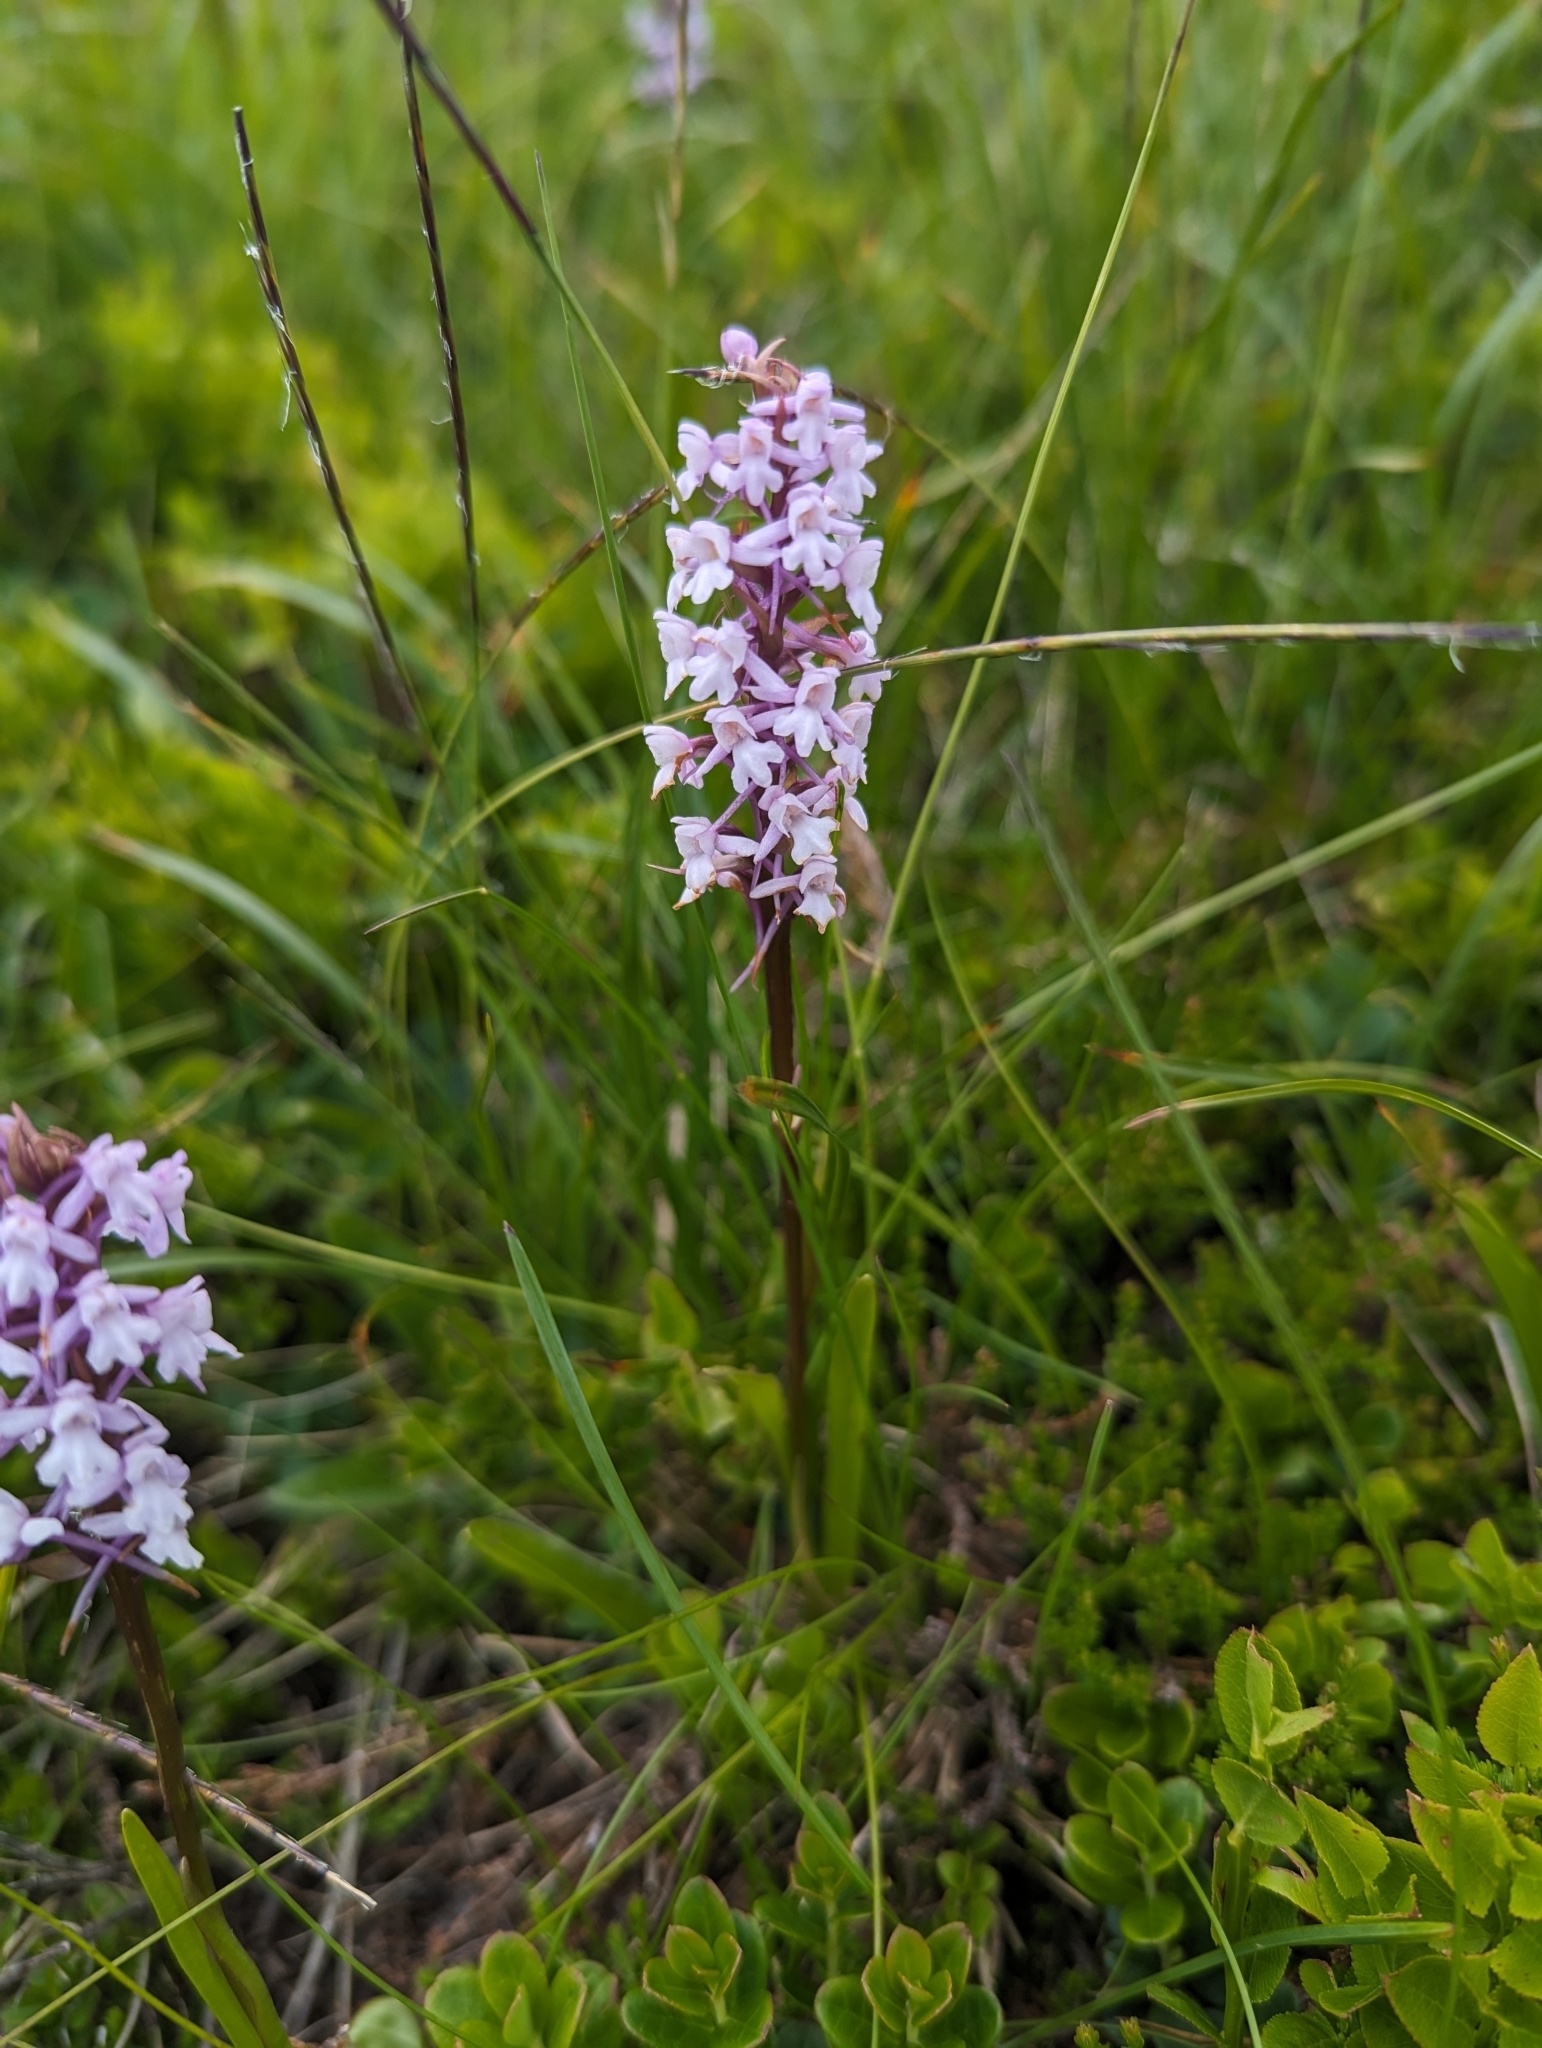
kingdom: Plantae
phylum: Tracheophyta
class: Liliopsida
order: Asparagales
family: Orchidaceae
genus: Gymnadenia
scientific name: Gymnadenia conopsea
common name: Fragrant orchid
